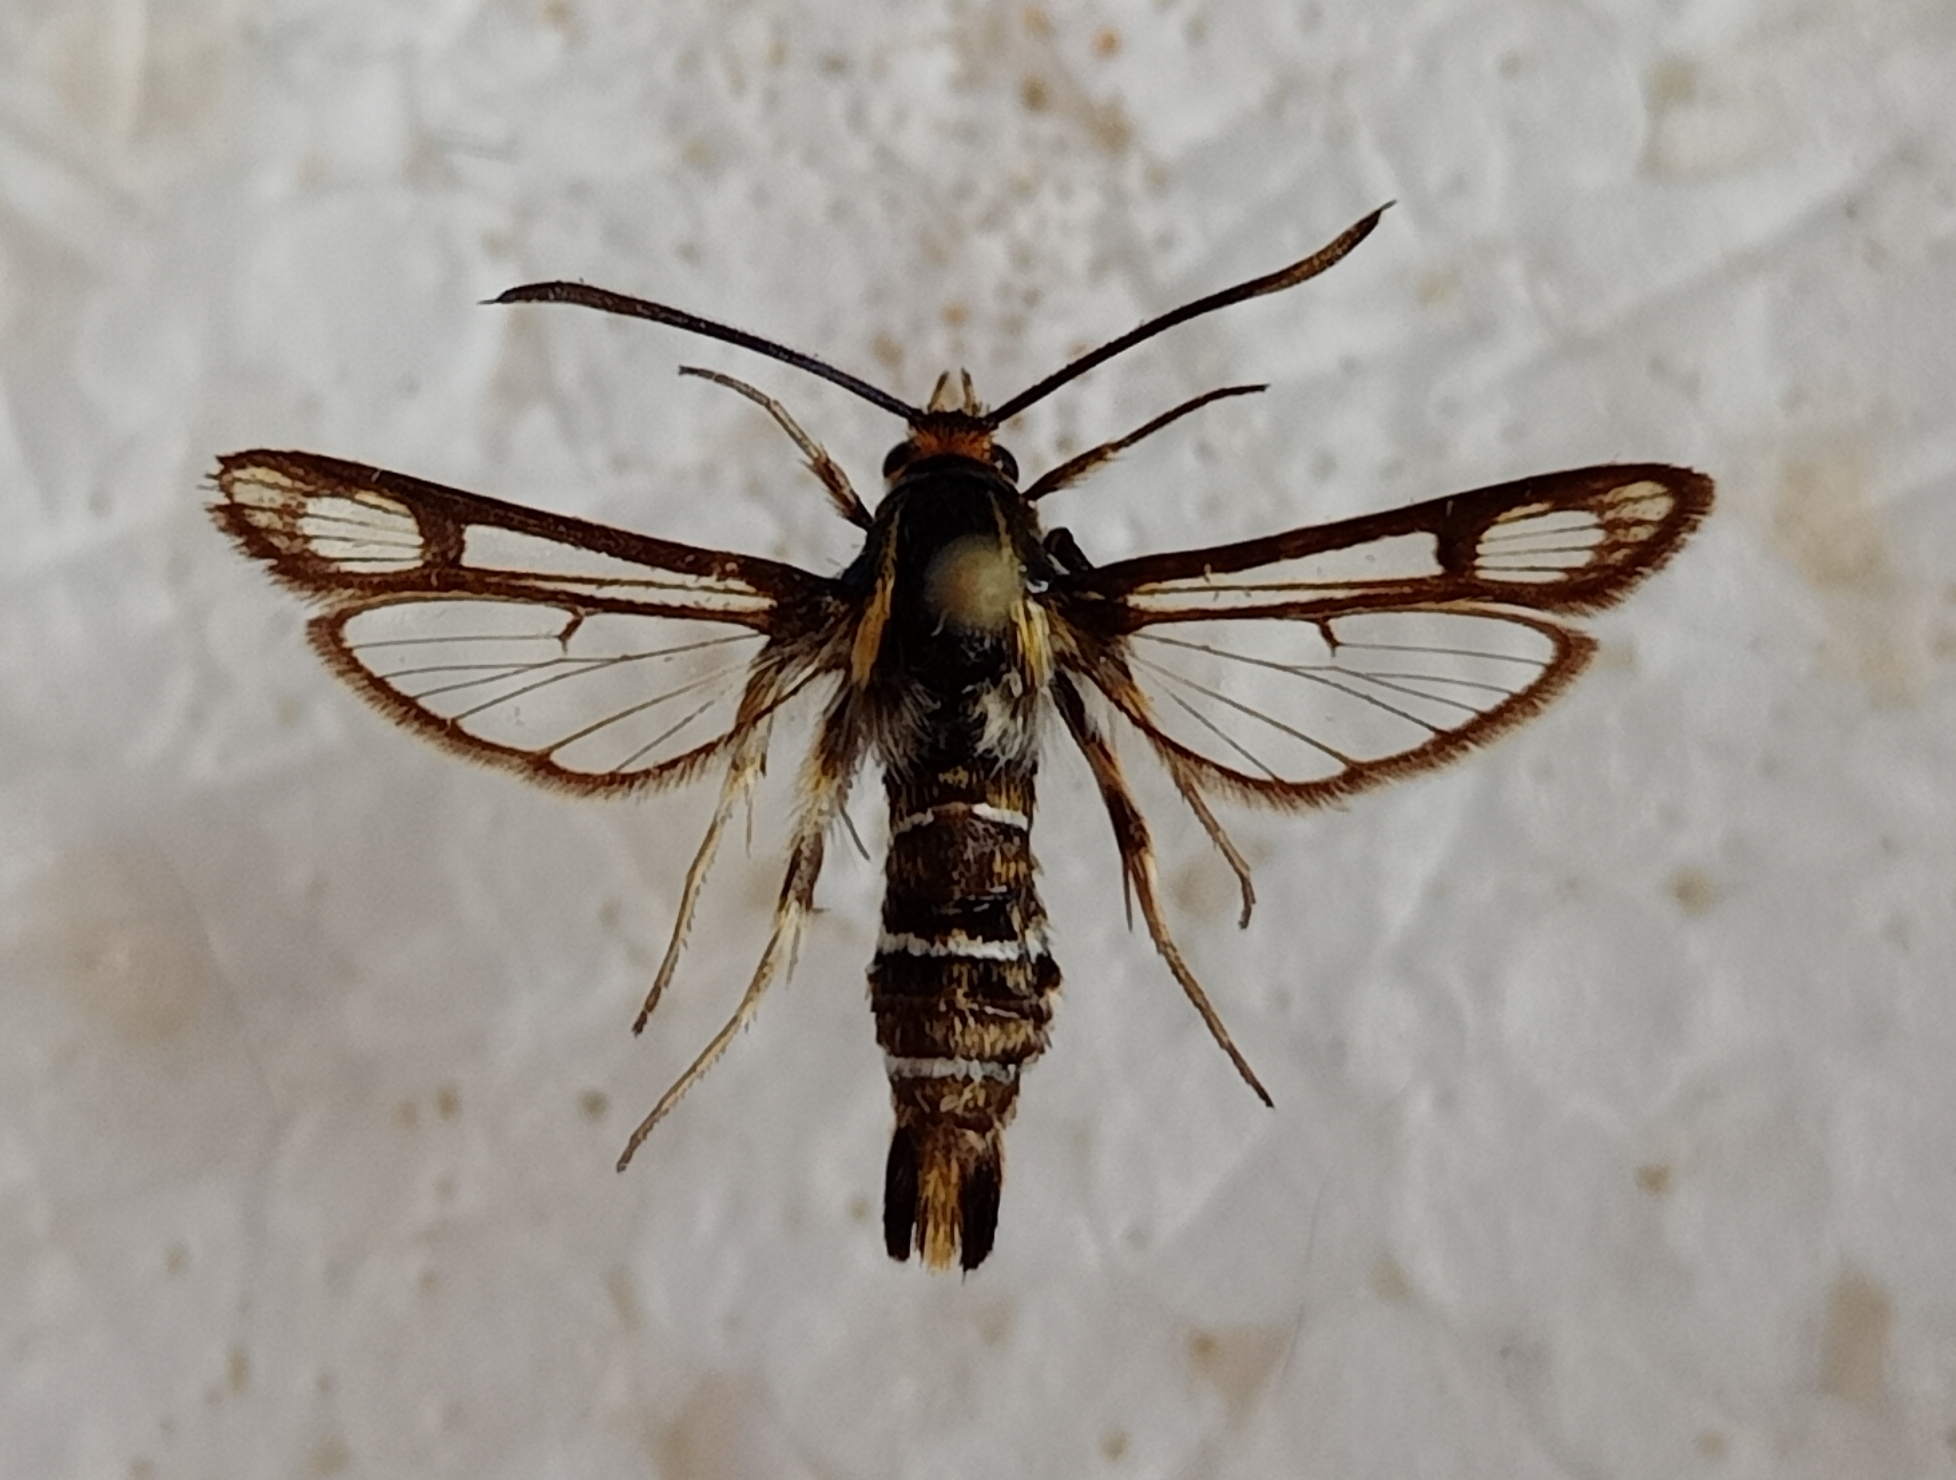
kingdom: Animalia
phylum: Arthropoda
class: Insecta
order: Lepidoptera
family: Sesiidae
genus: Chamaesphecia
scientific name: Chamaesphecia bibioniformis
